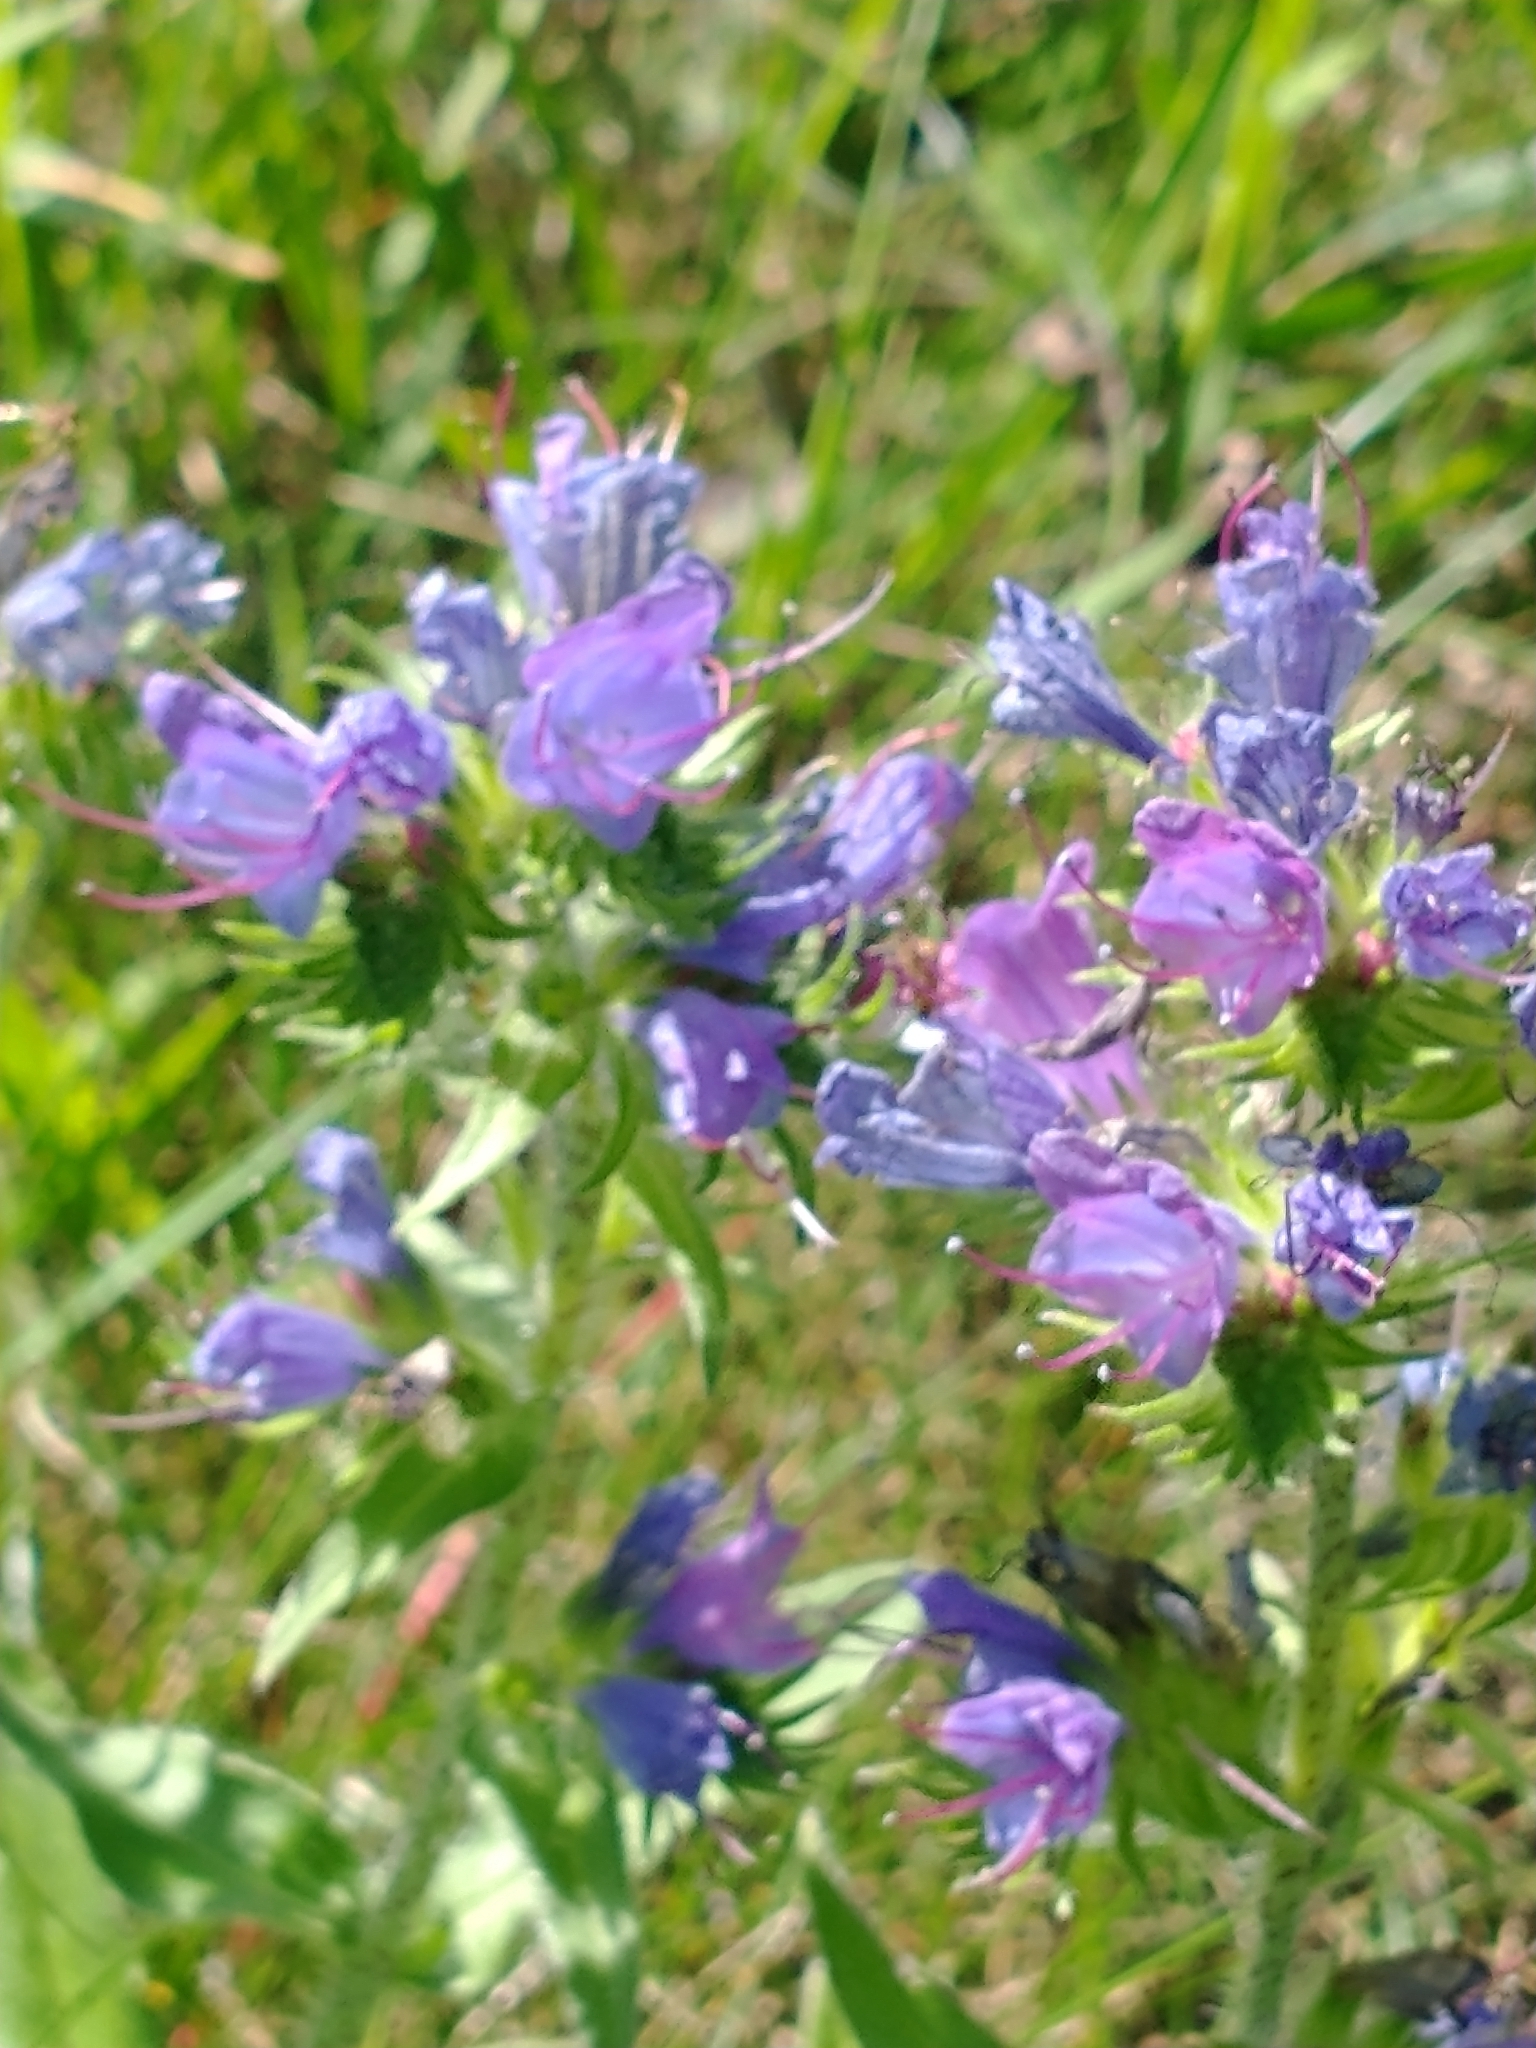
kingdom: Plantae
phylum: Tracheophyta
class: Magnoliopsida
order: Boraginales
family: Boraginaceae
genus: Echium
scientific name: Echium vulgare
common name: Common viper's bugloss
